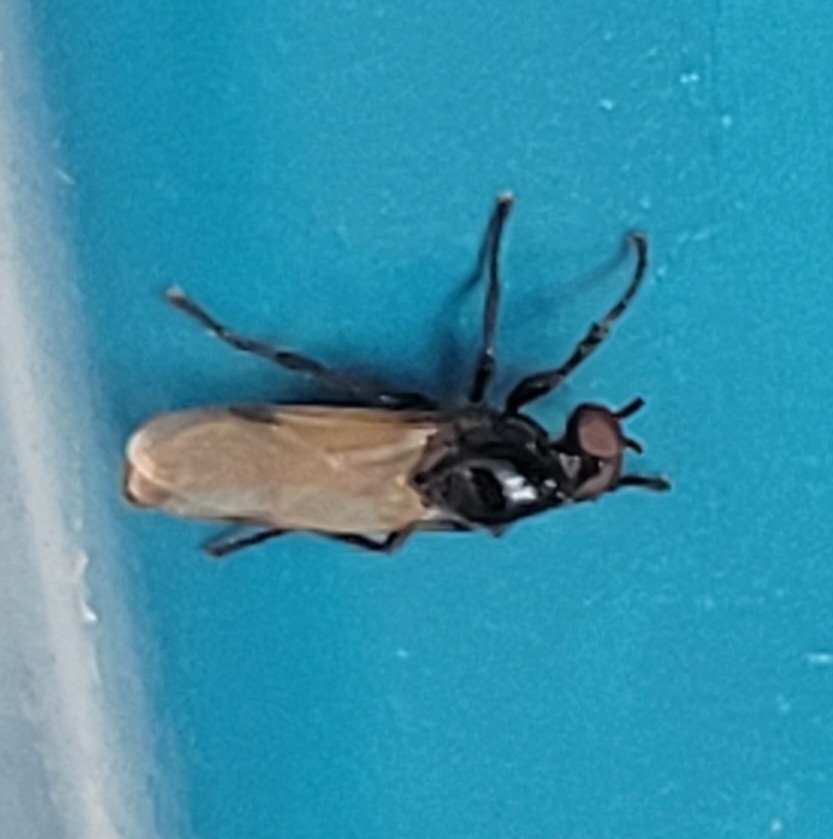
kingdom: Animalia
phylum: Arthropoda
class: Insecta
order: Diptera
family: Bibionidae
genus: Dilophus
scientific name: Dilophus orbatus
